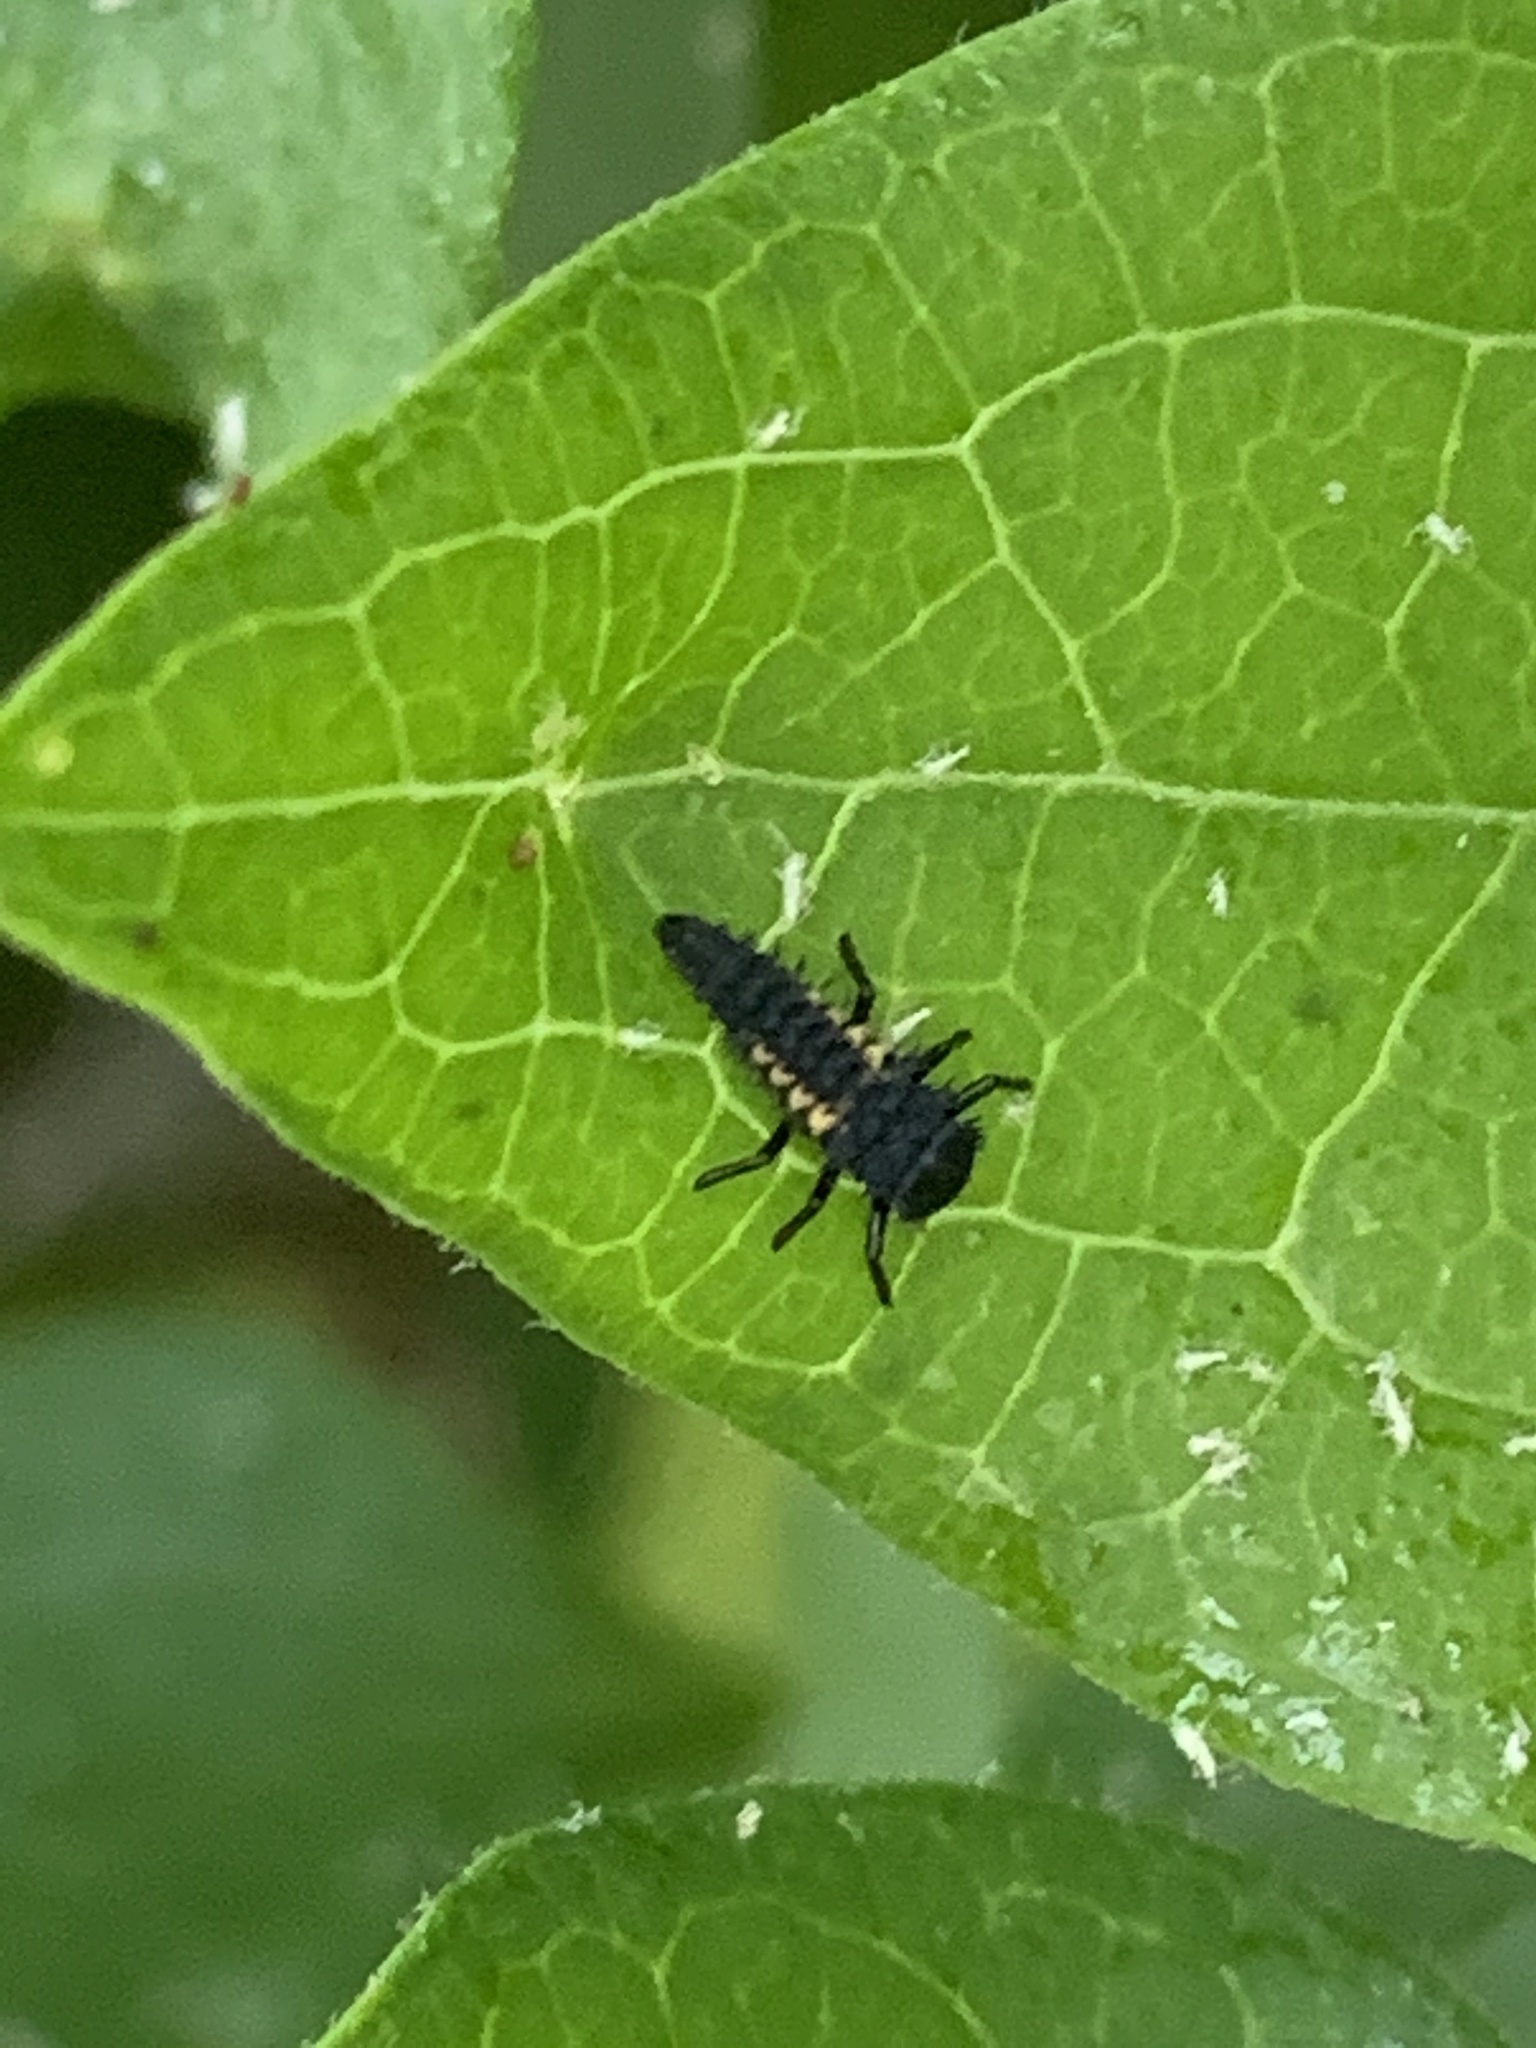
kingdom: Animalia
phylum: Arthropoda
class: Insecta
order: Coleoptera
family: Coccinellidae
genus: Harmonia
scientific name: Harmonia axyridis
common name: Harlequin ladybird
